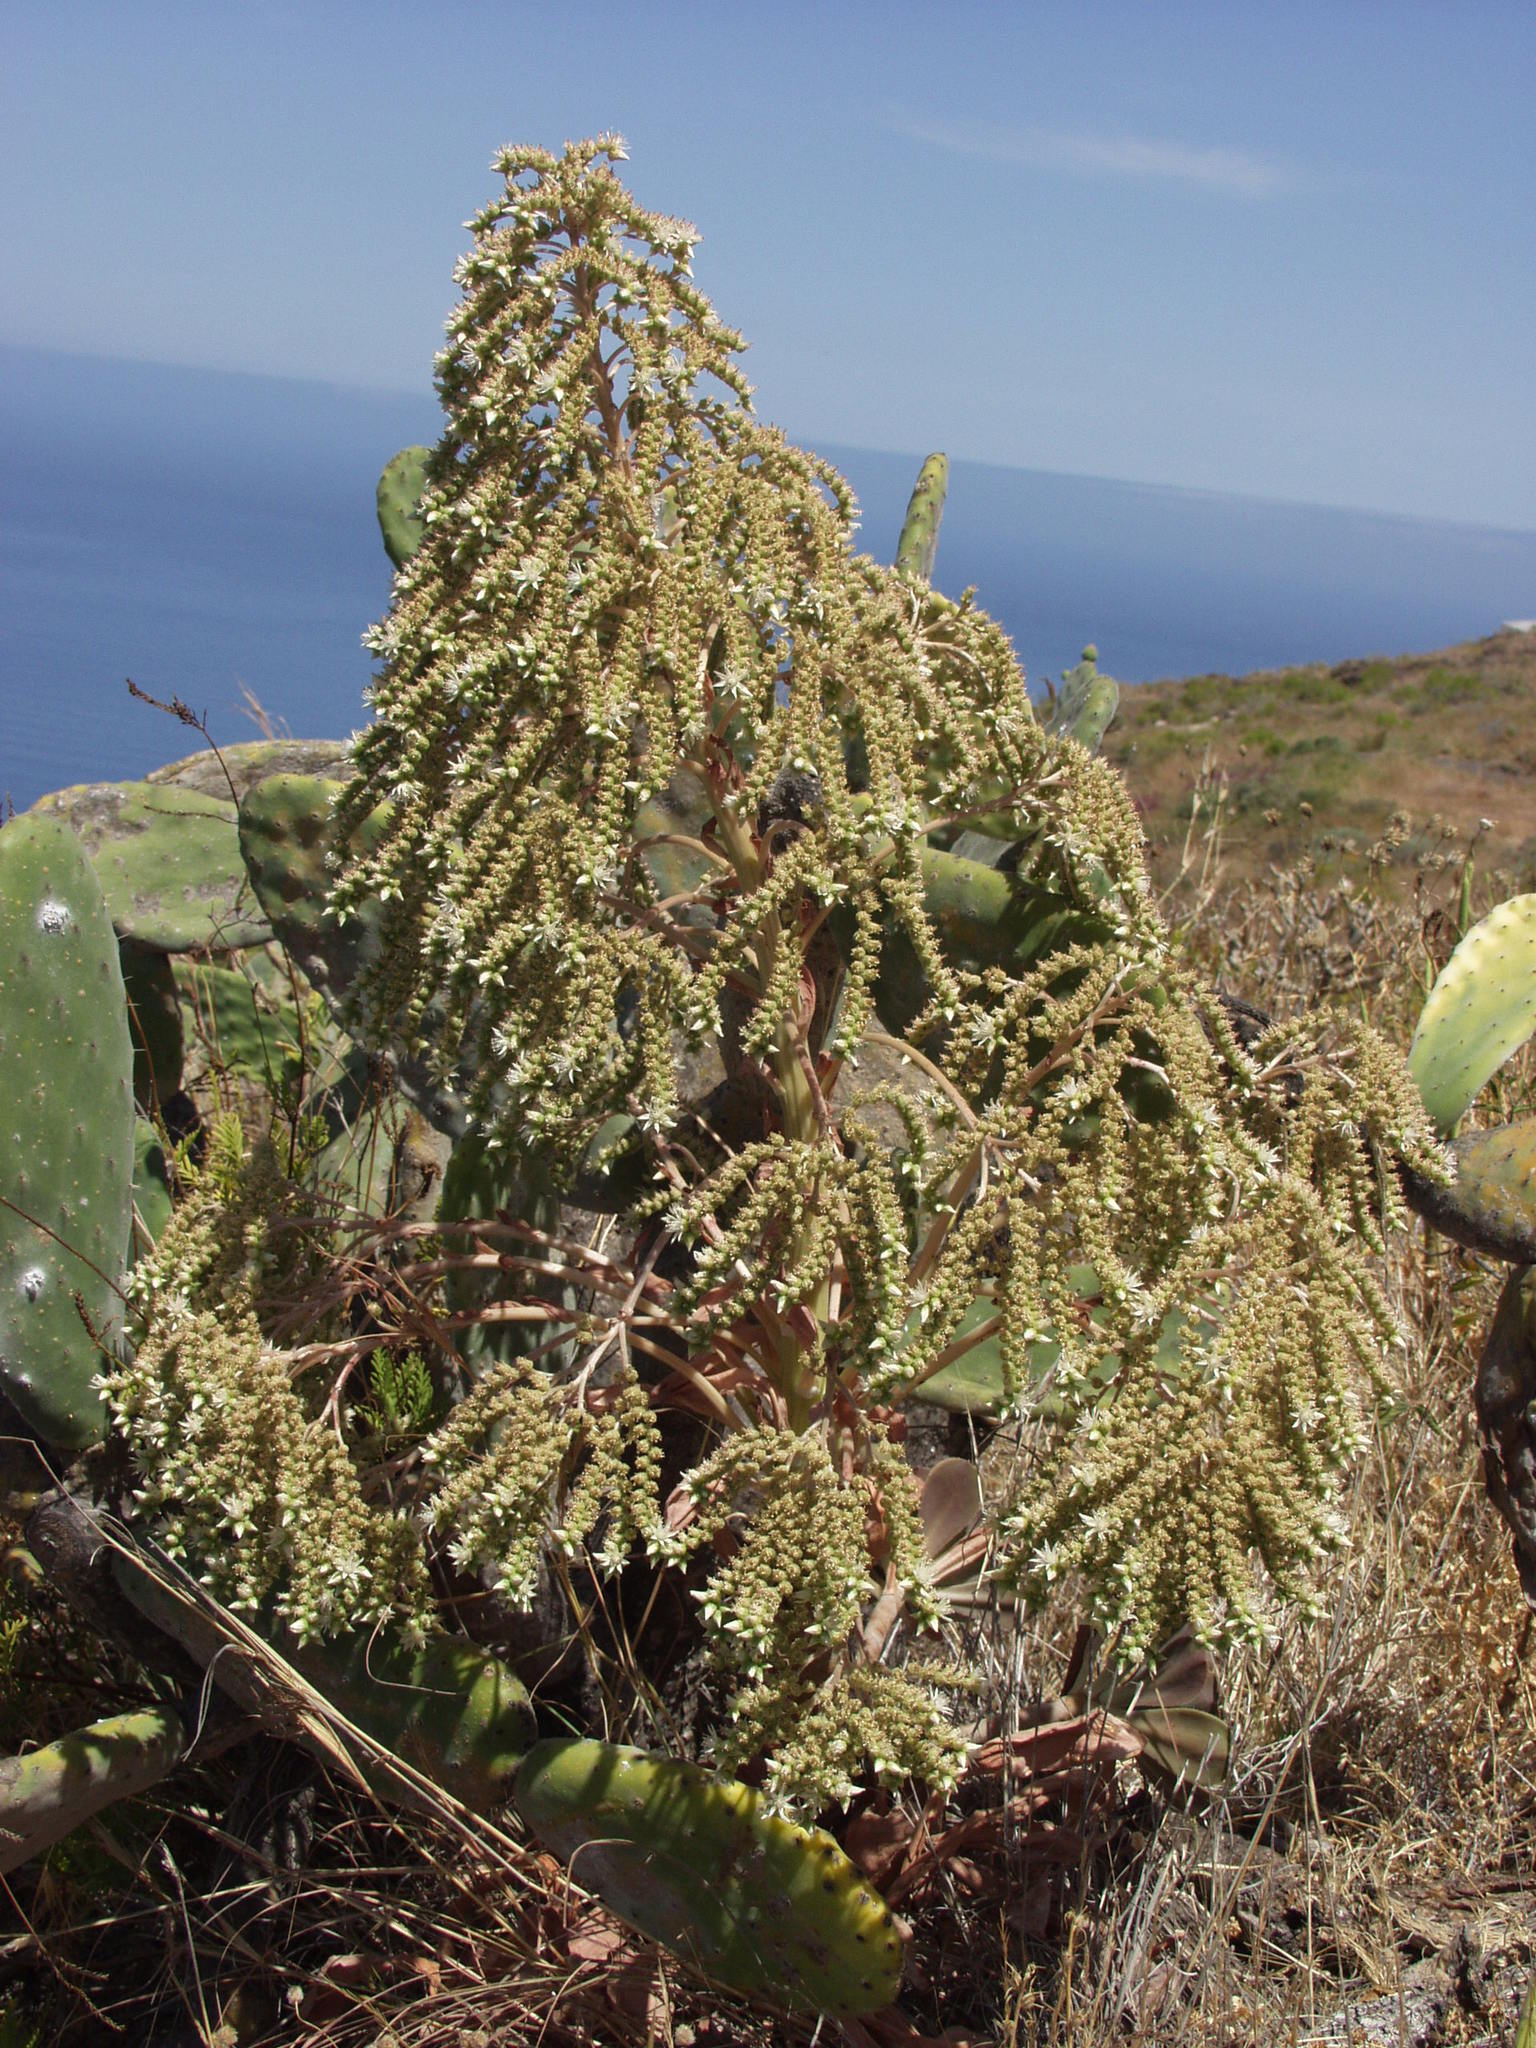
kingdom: Plantae
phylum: Tracheophyta
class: Magnoliopsida
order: Saxifragales
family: Crassulaceae
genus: Aeonium
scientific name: Aeonium hierrense
